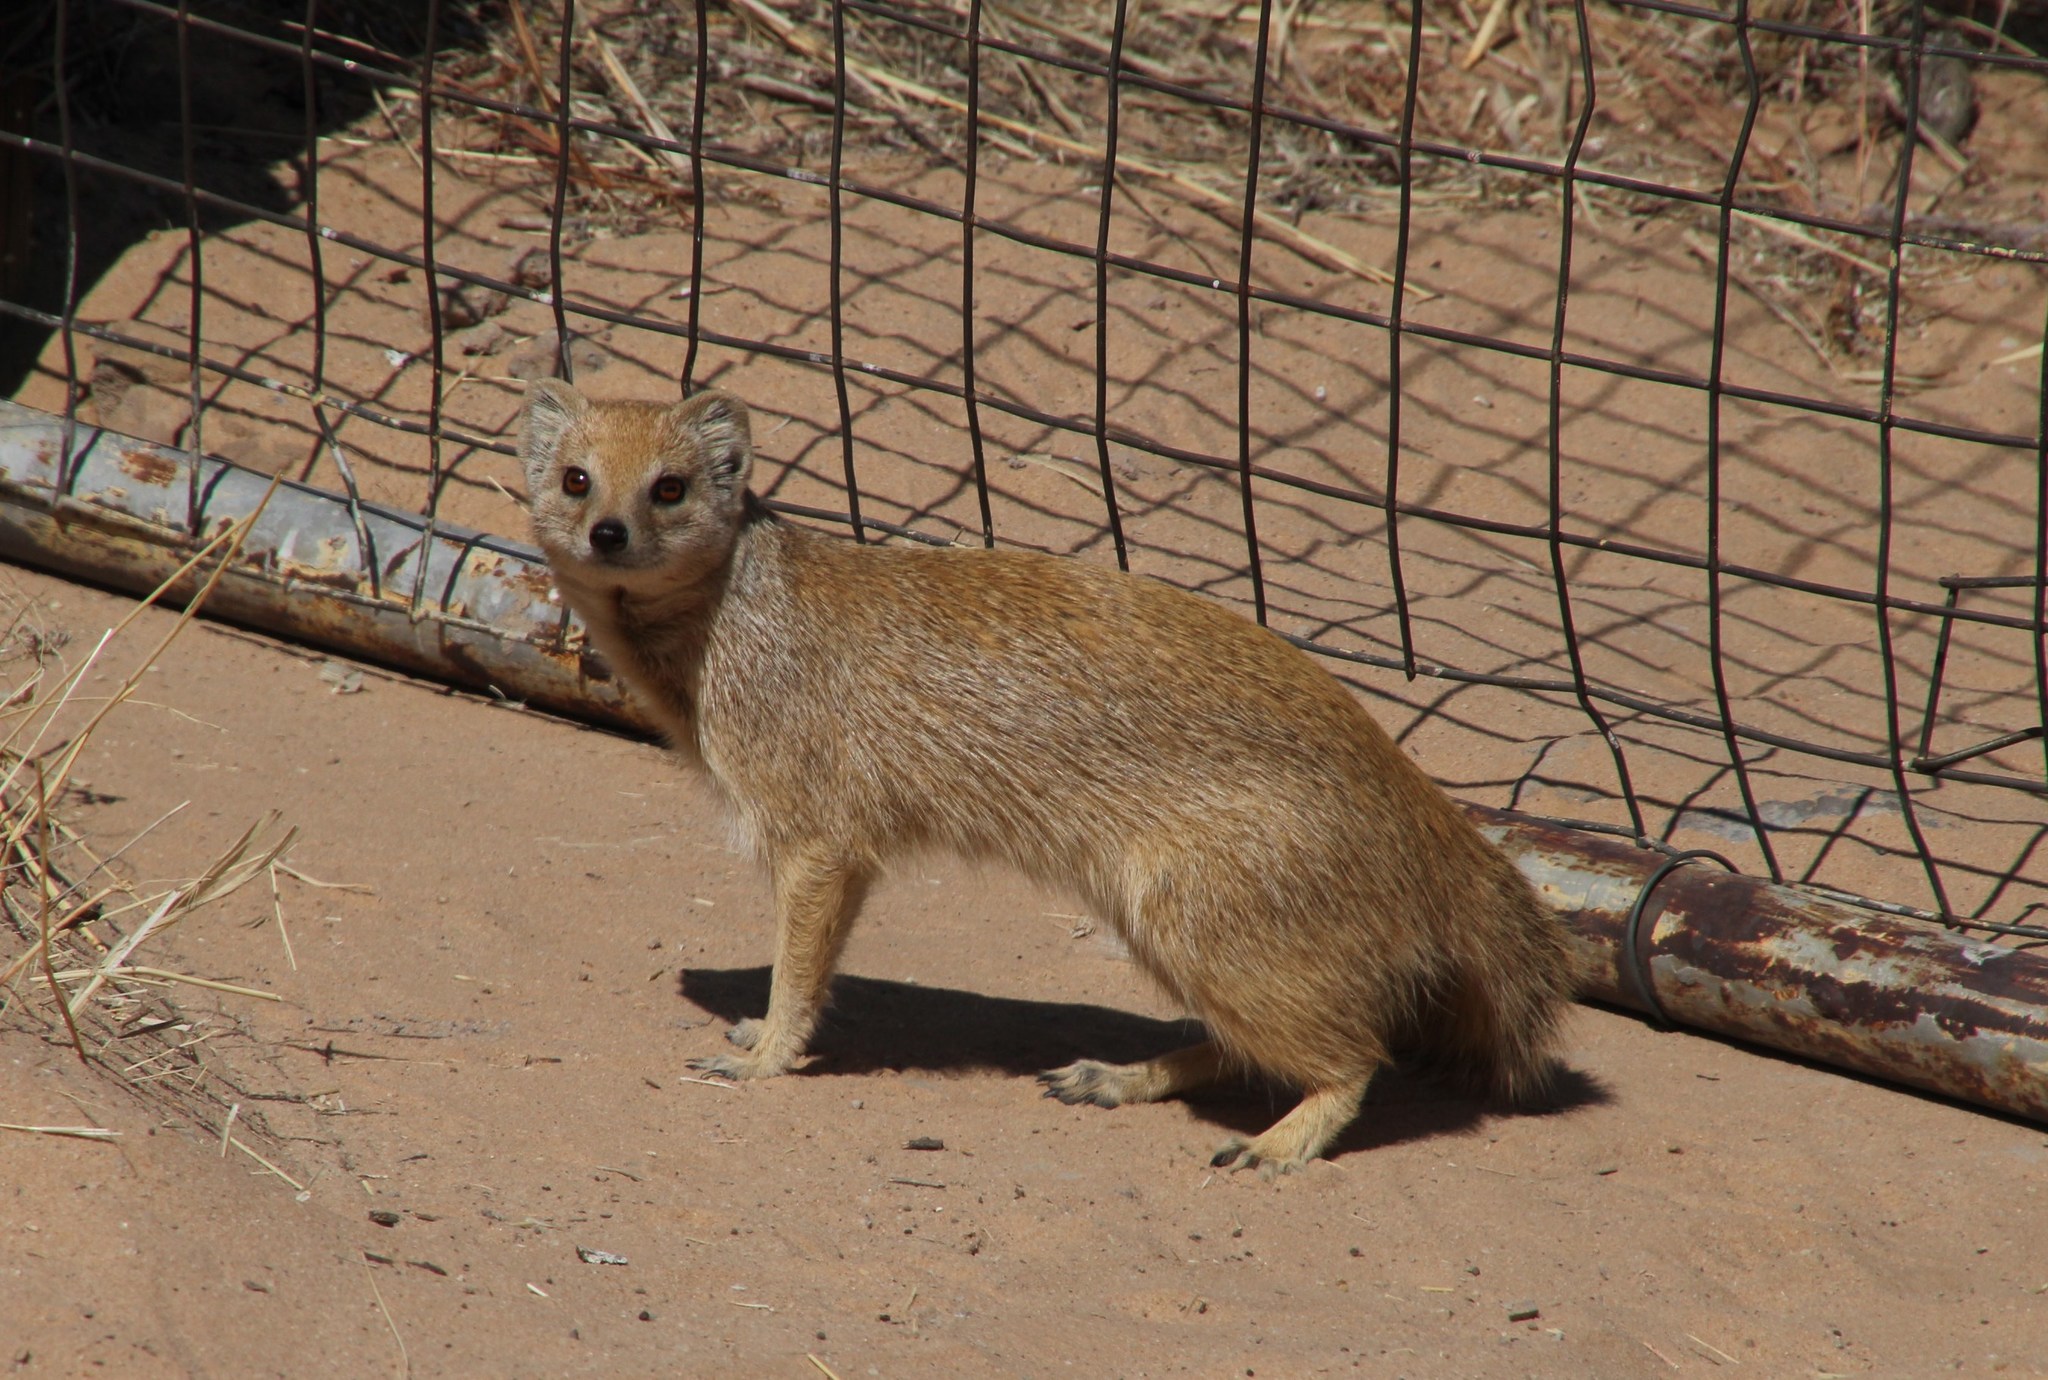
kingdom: Animalia
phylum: Chordata
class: Mammalia
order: Carnivora
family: Herpestidae
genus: Cynictis
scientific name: Cynictis penicillata
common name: Yellow mongoose
